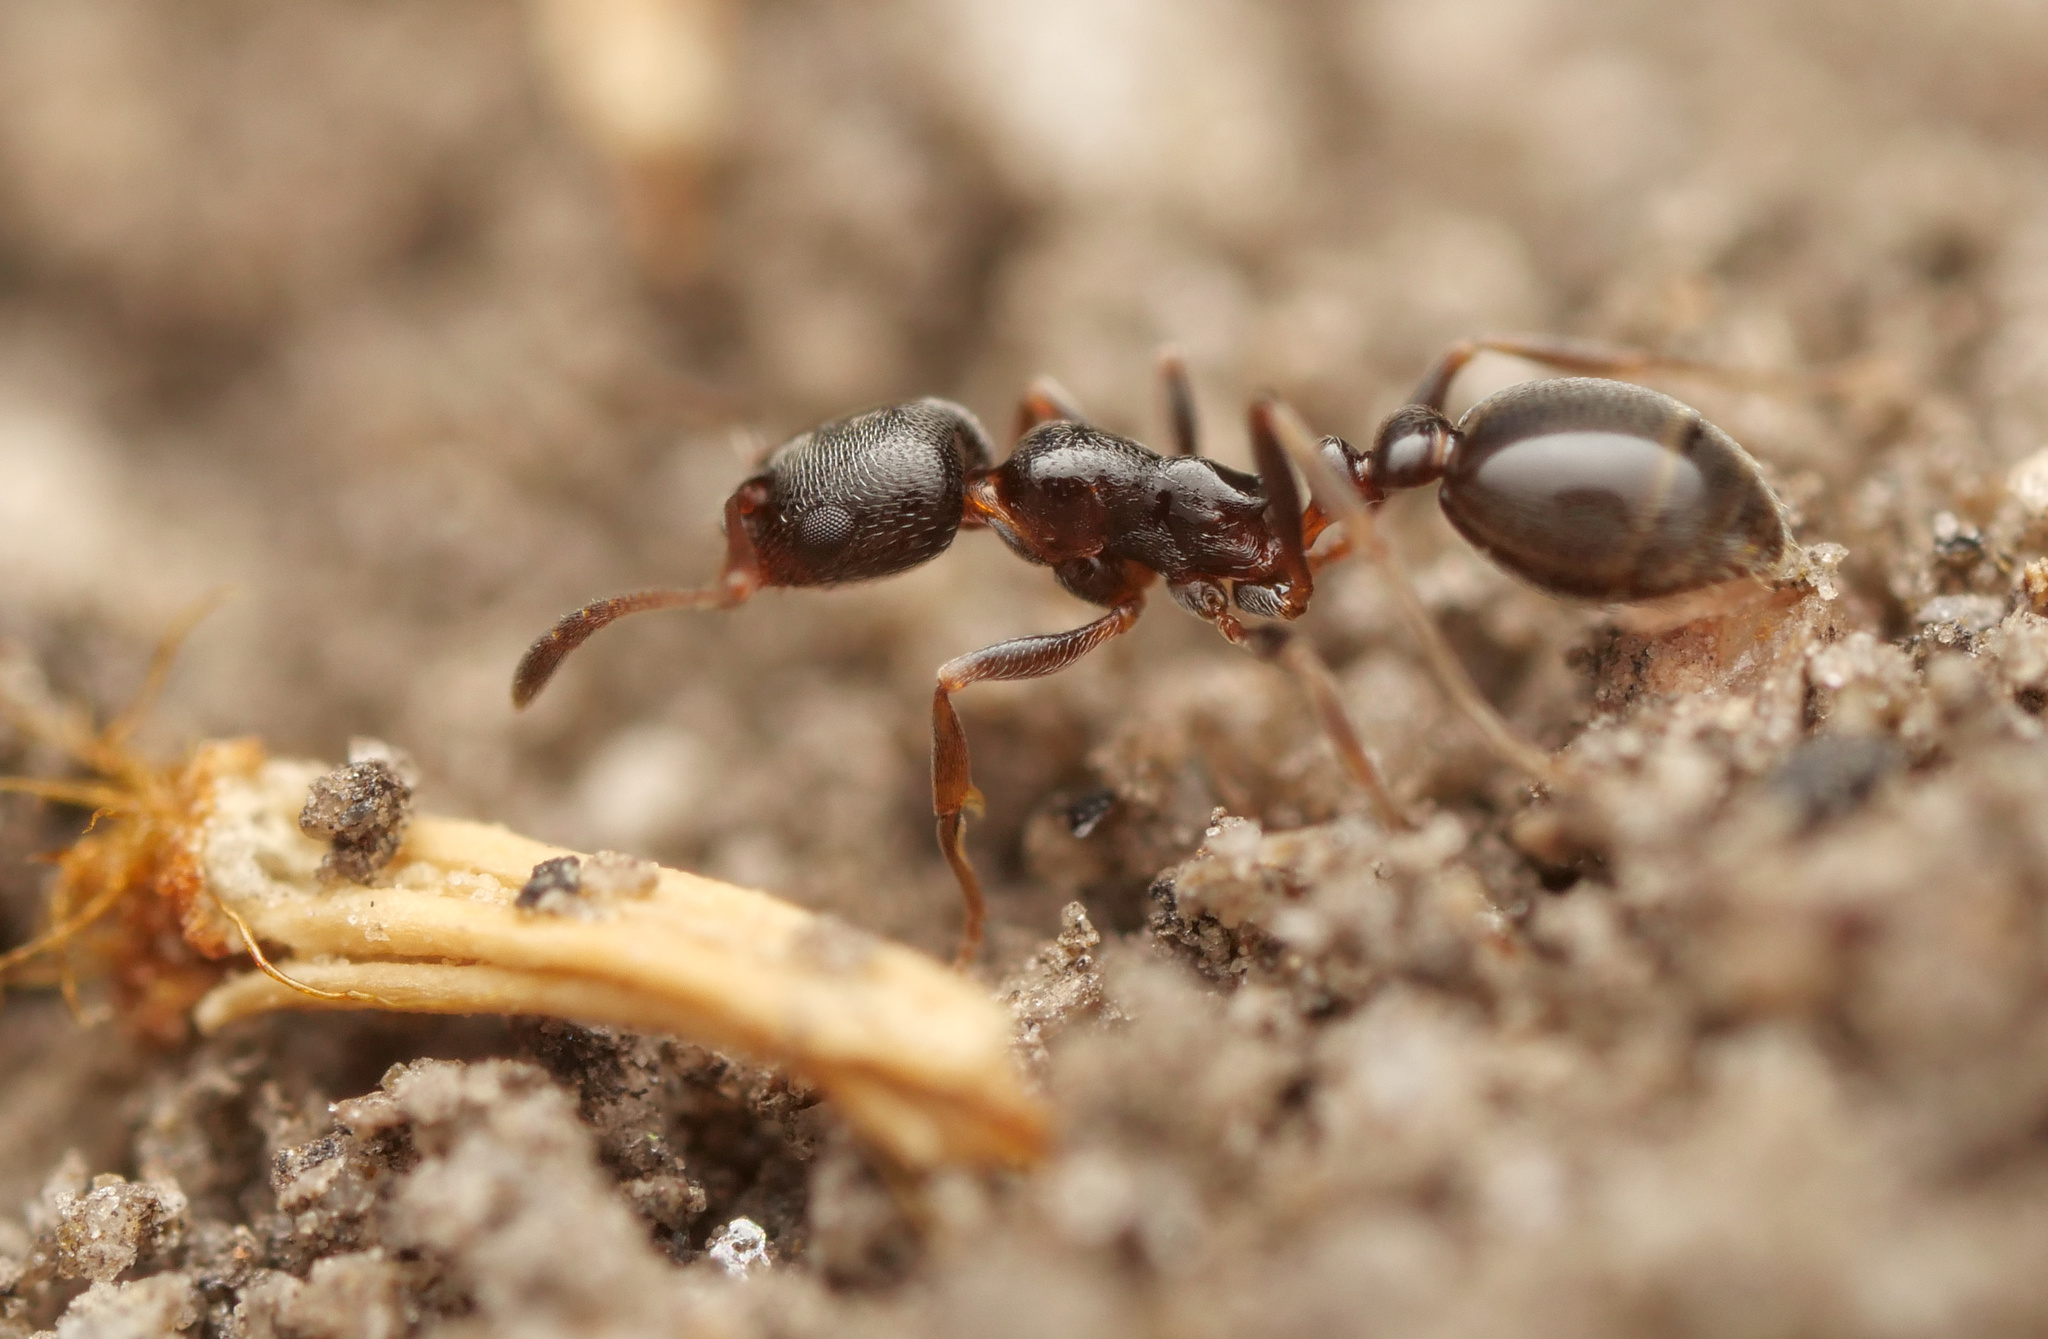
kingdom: Animalia
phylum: Arthropoda
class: Insecta
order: Hymenoptera
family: Formicidae
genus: Cardiocondyla
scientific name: Cardiocondyla
